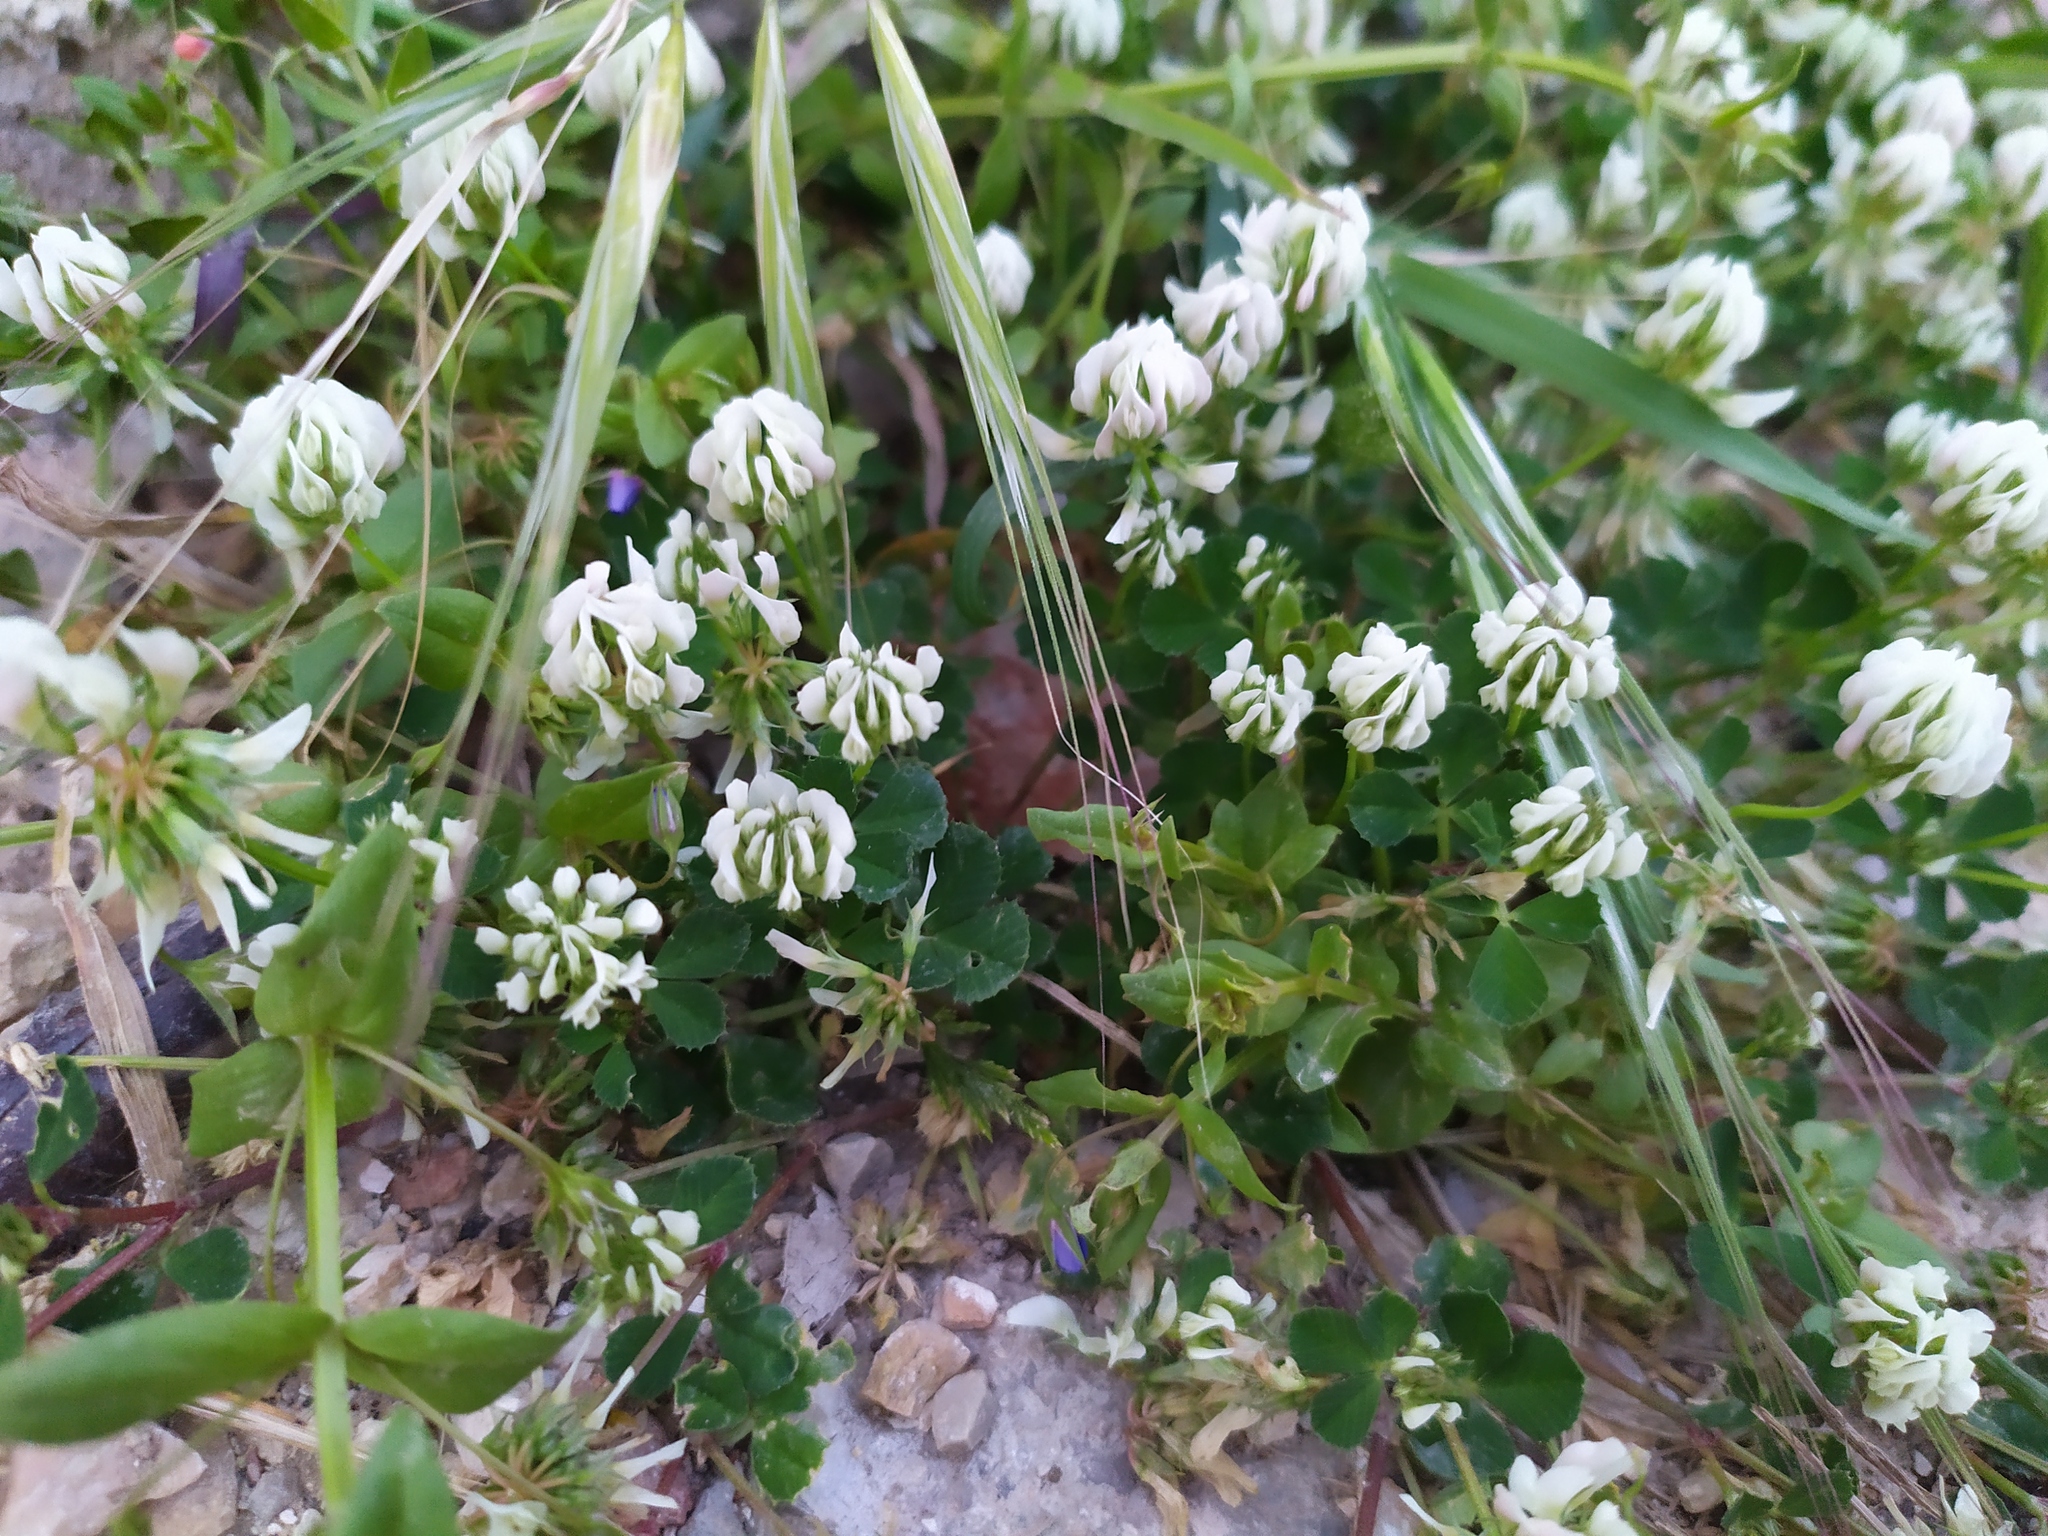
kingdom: Plantae
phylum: Tracheophyta
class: Magnoliopsida
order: Fabales
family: Fabaceae
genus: Trifolium
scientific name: Trifolium nigrescens
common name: Small white clover
